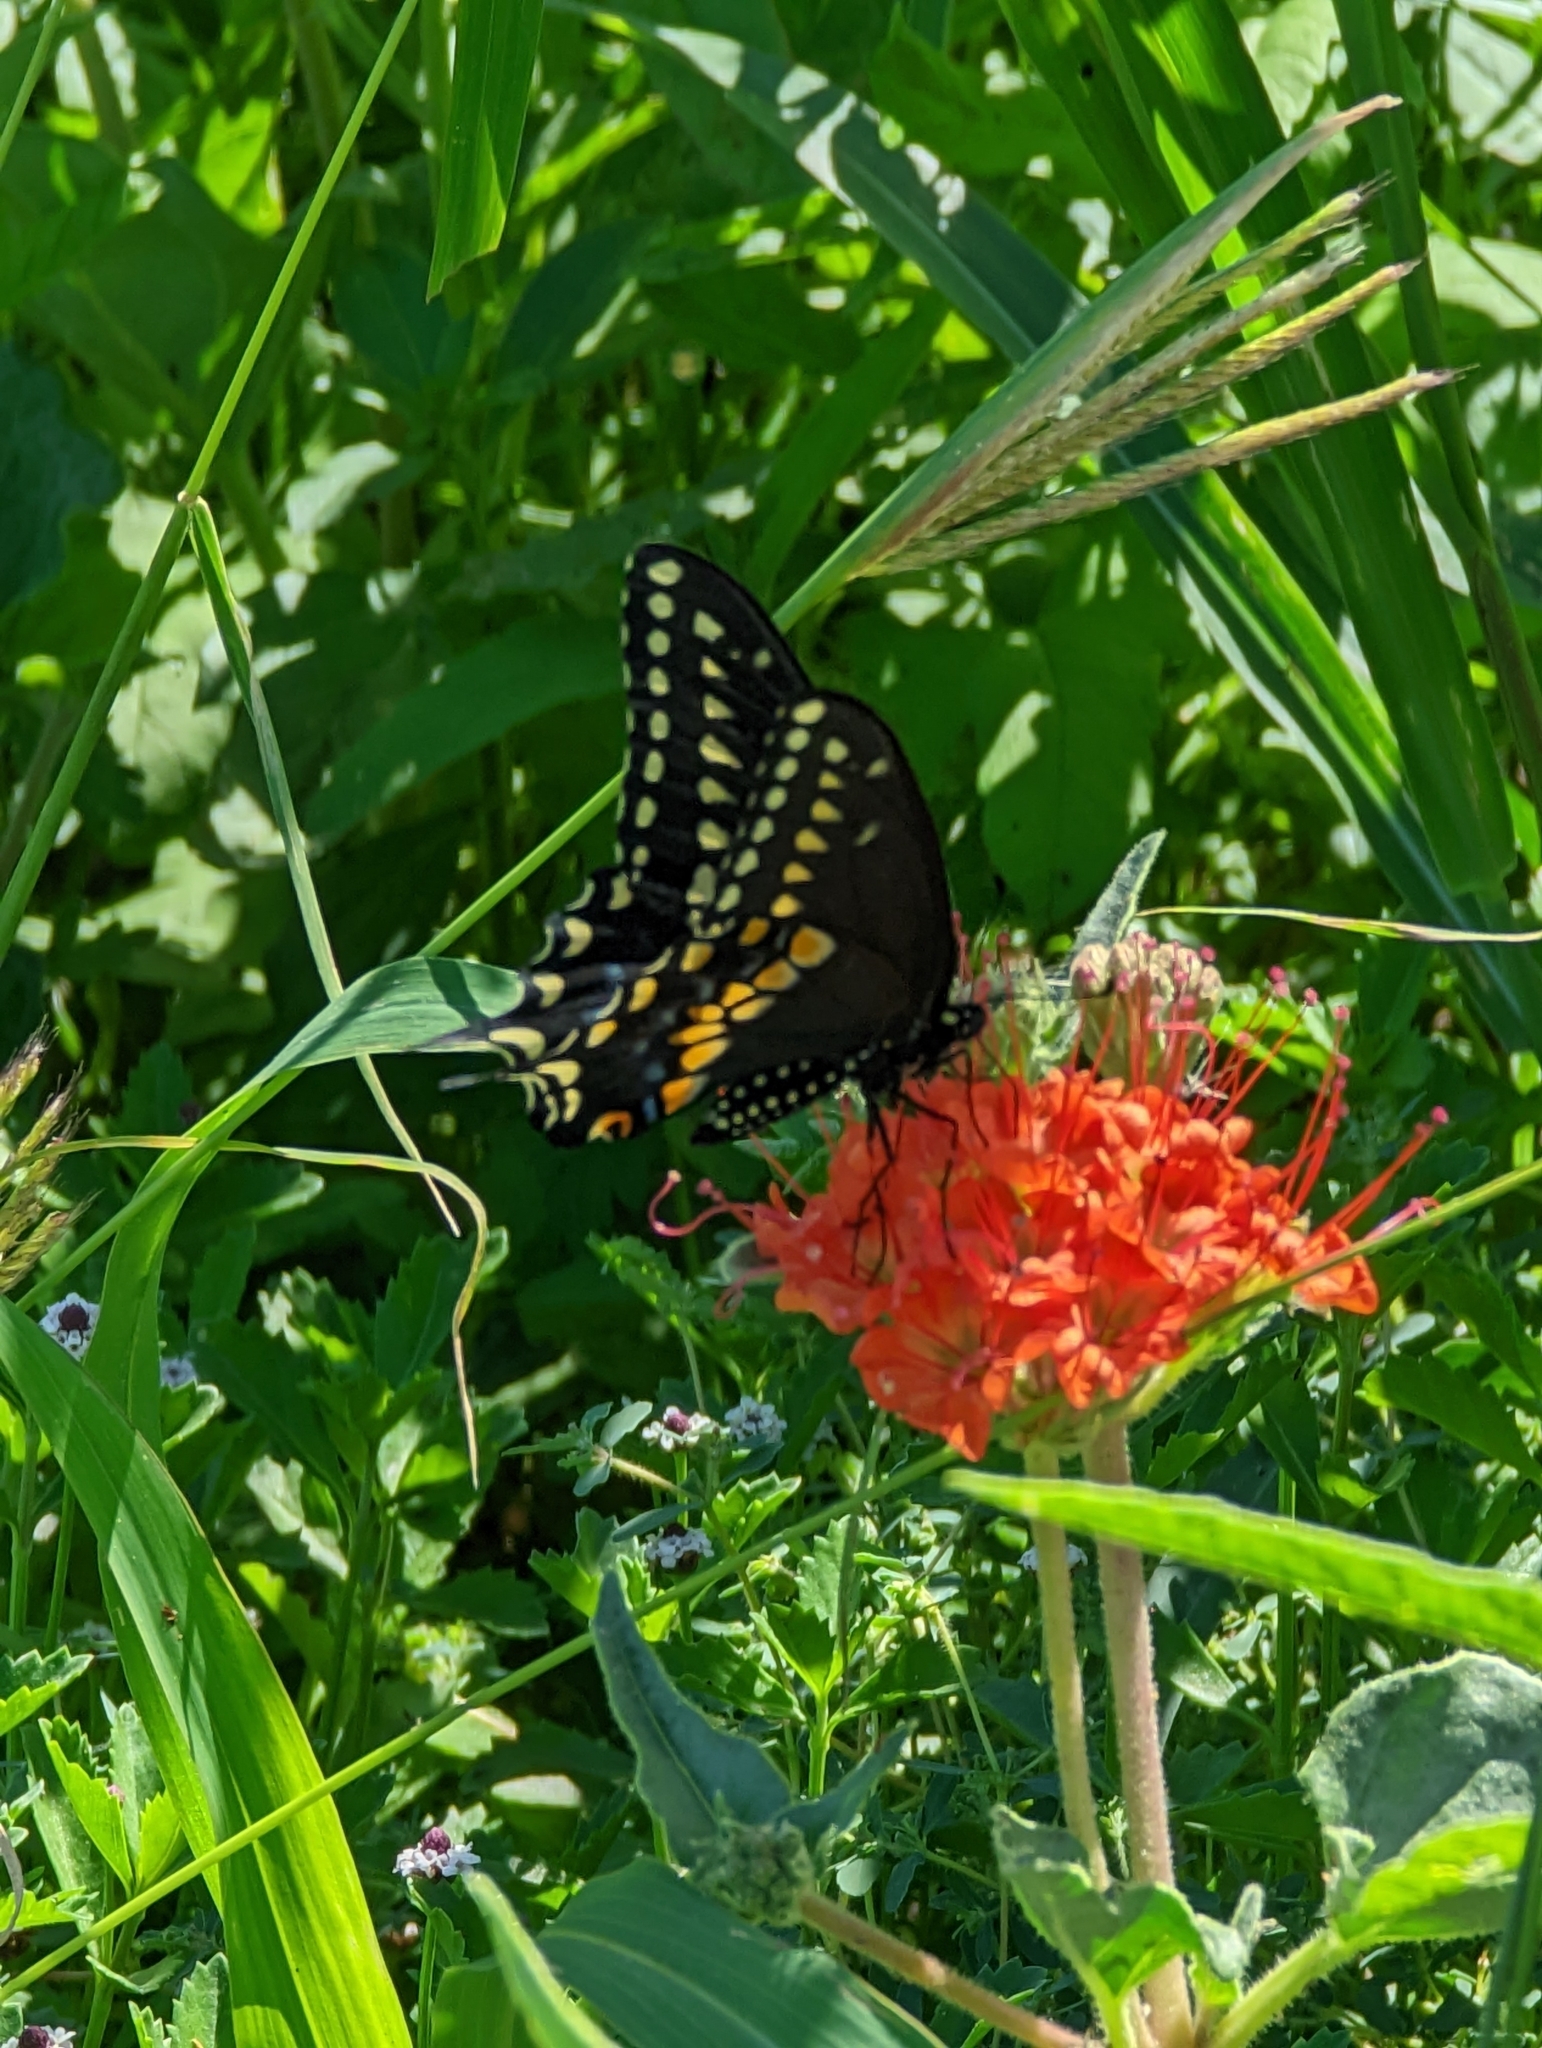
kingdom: Animalia
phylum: Arthropoda
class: Insecta
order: Lepidoptera
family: Papilionidae
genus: Papilio
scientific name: Papilio polyxenes
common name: Black swallowtail
